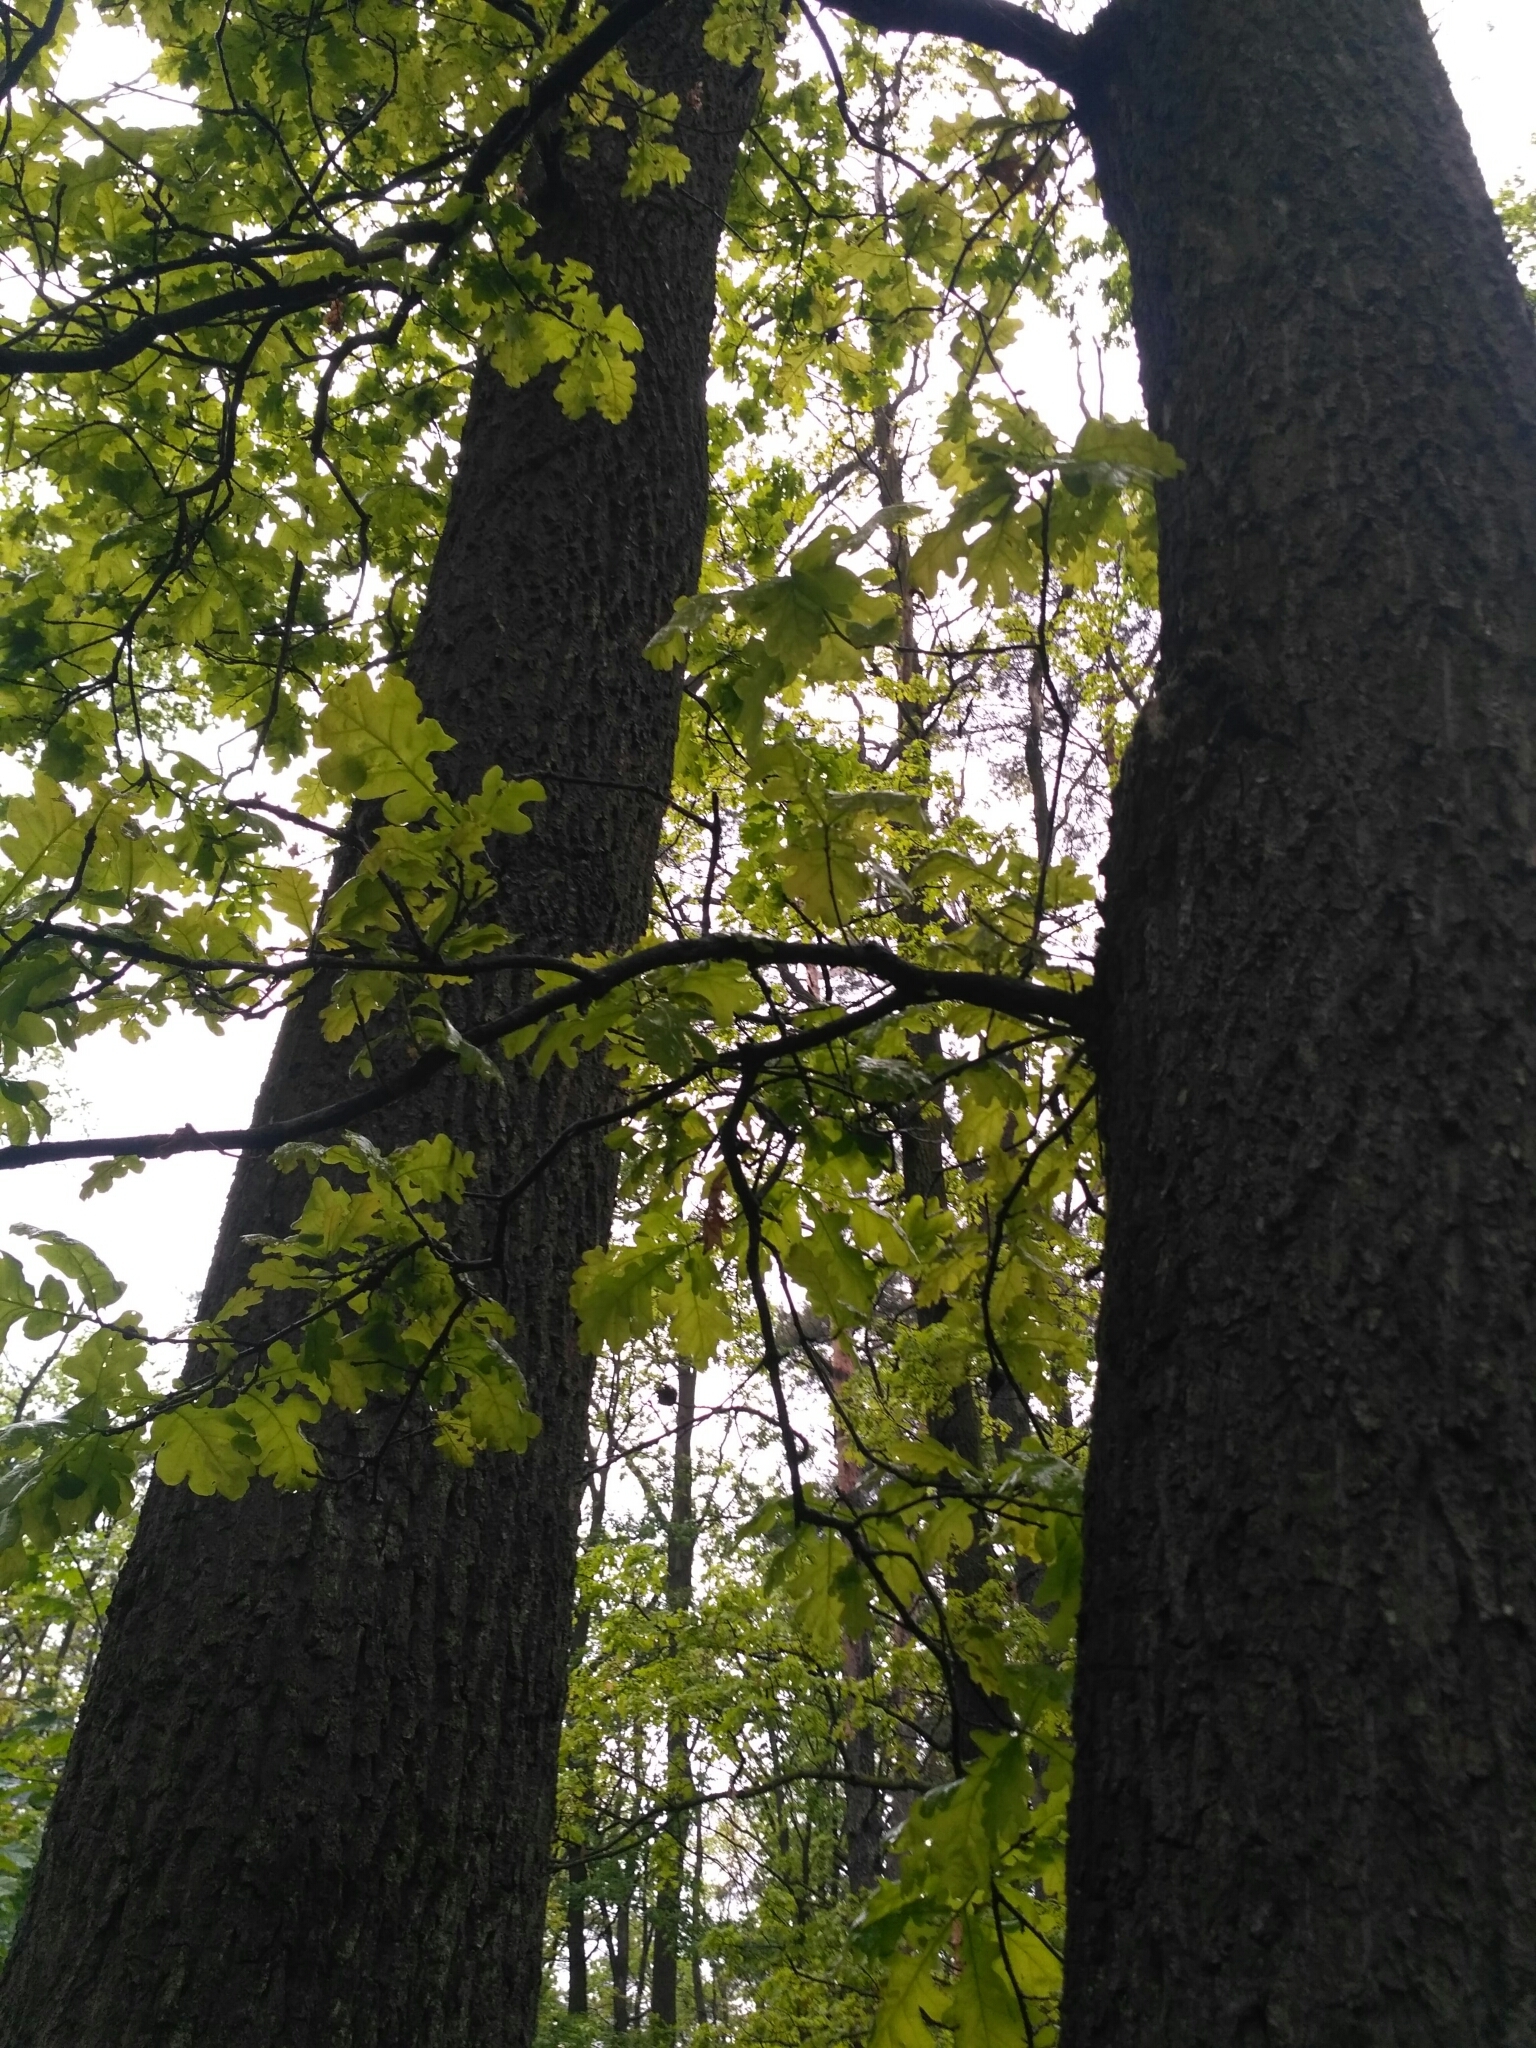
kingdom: Plantae
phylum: Tracheophyta
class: Magnoliopsida
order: Fagales
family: Fagaceae
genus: Quercus
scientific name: Quercus robur
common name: Pedunculate oak
